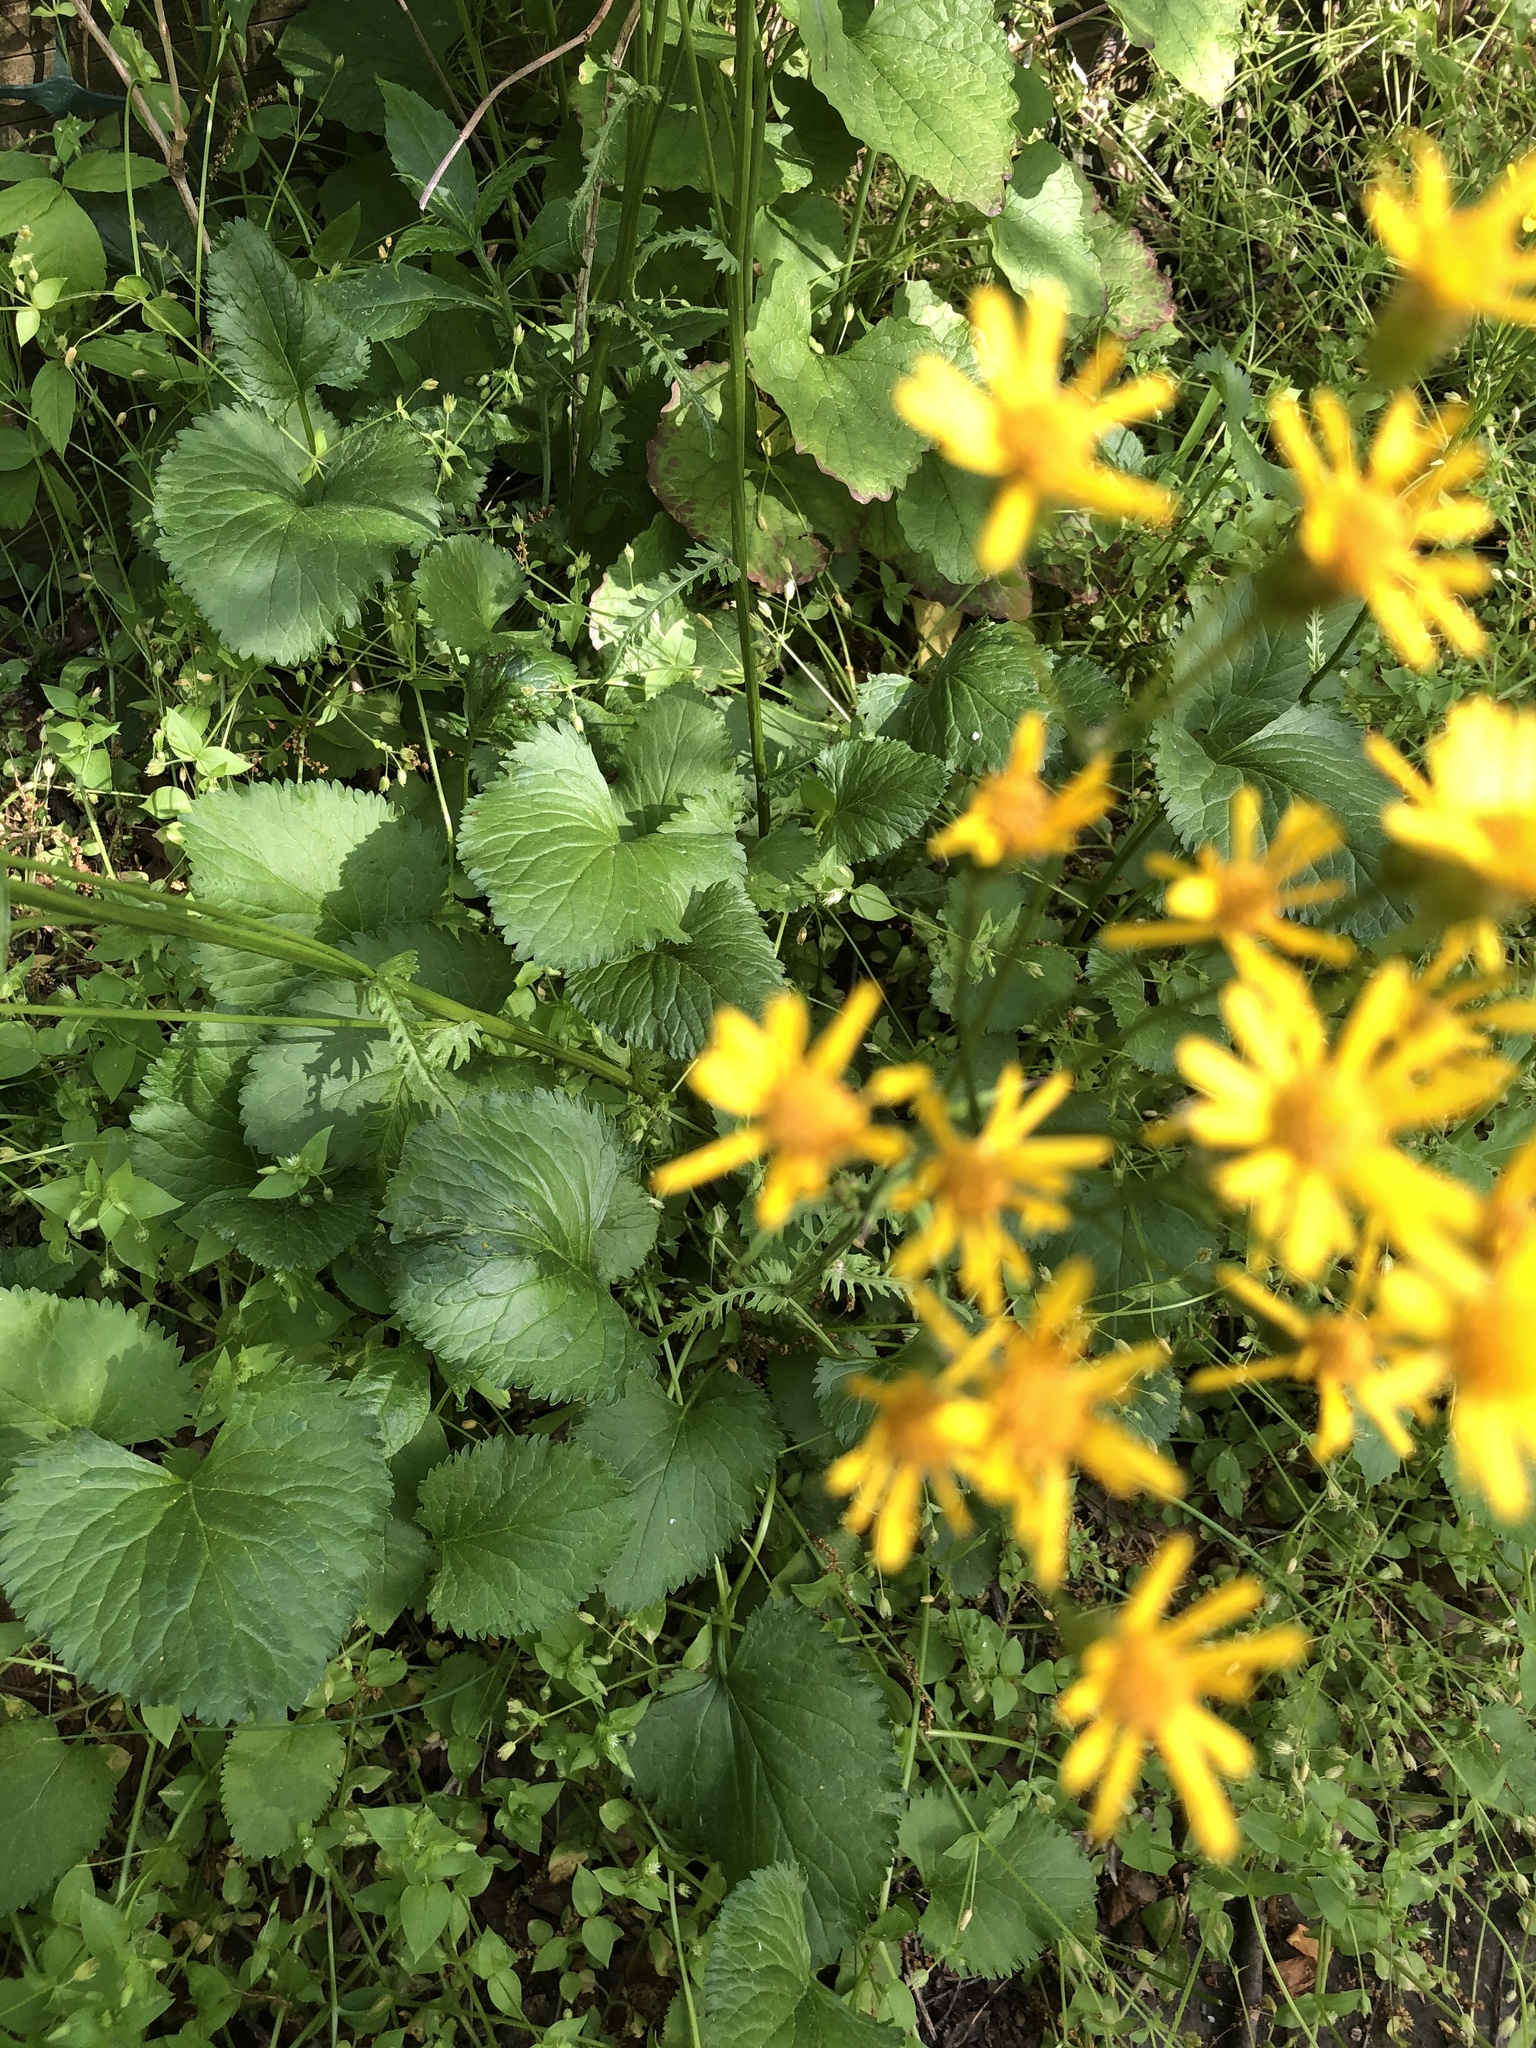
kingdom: Plantae
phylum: Tracheophyta
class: Magnoliopsida
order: Asterales
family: Asteraceae
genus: Packera
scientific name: Packera aurea
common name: Golden groundsel
